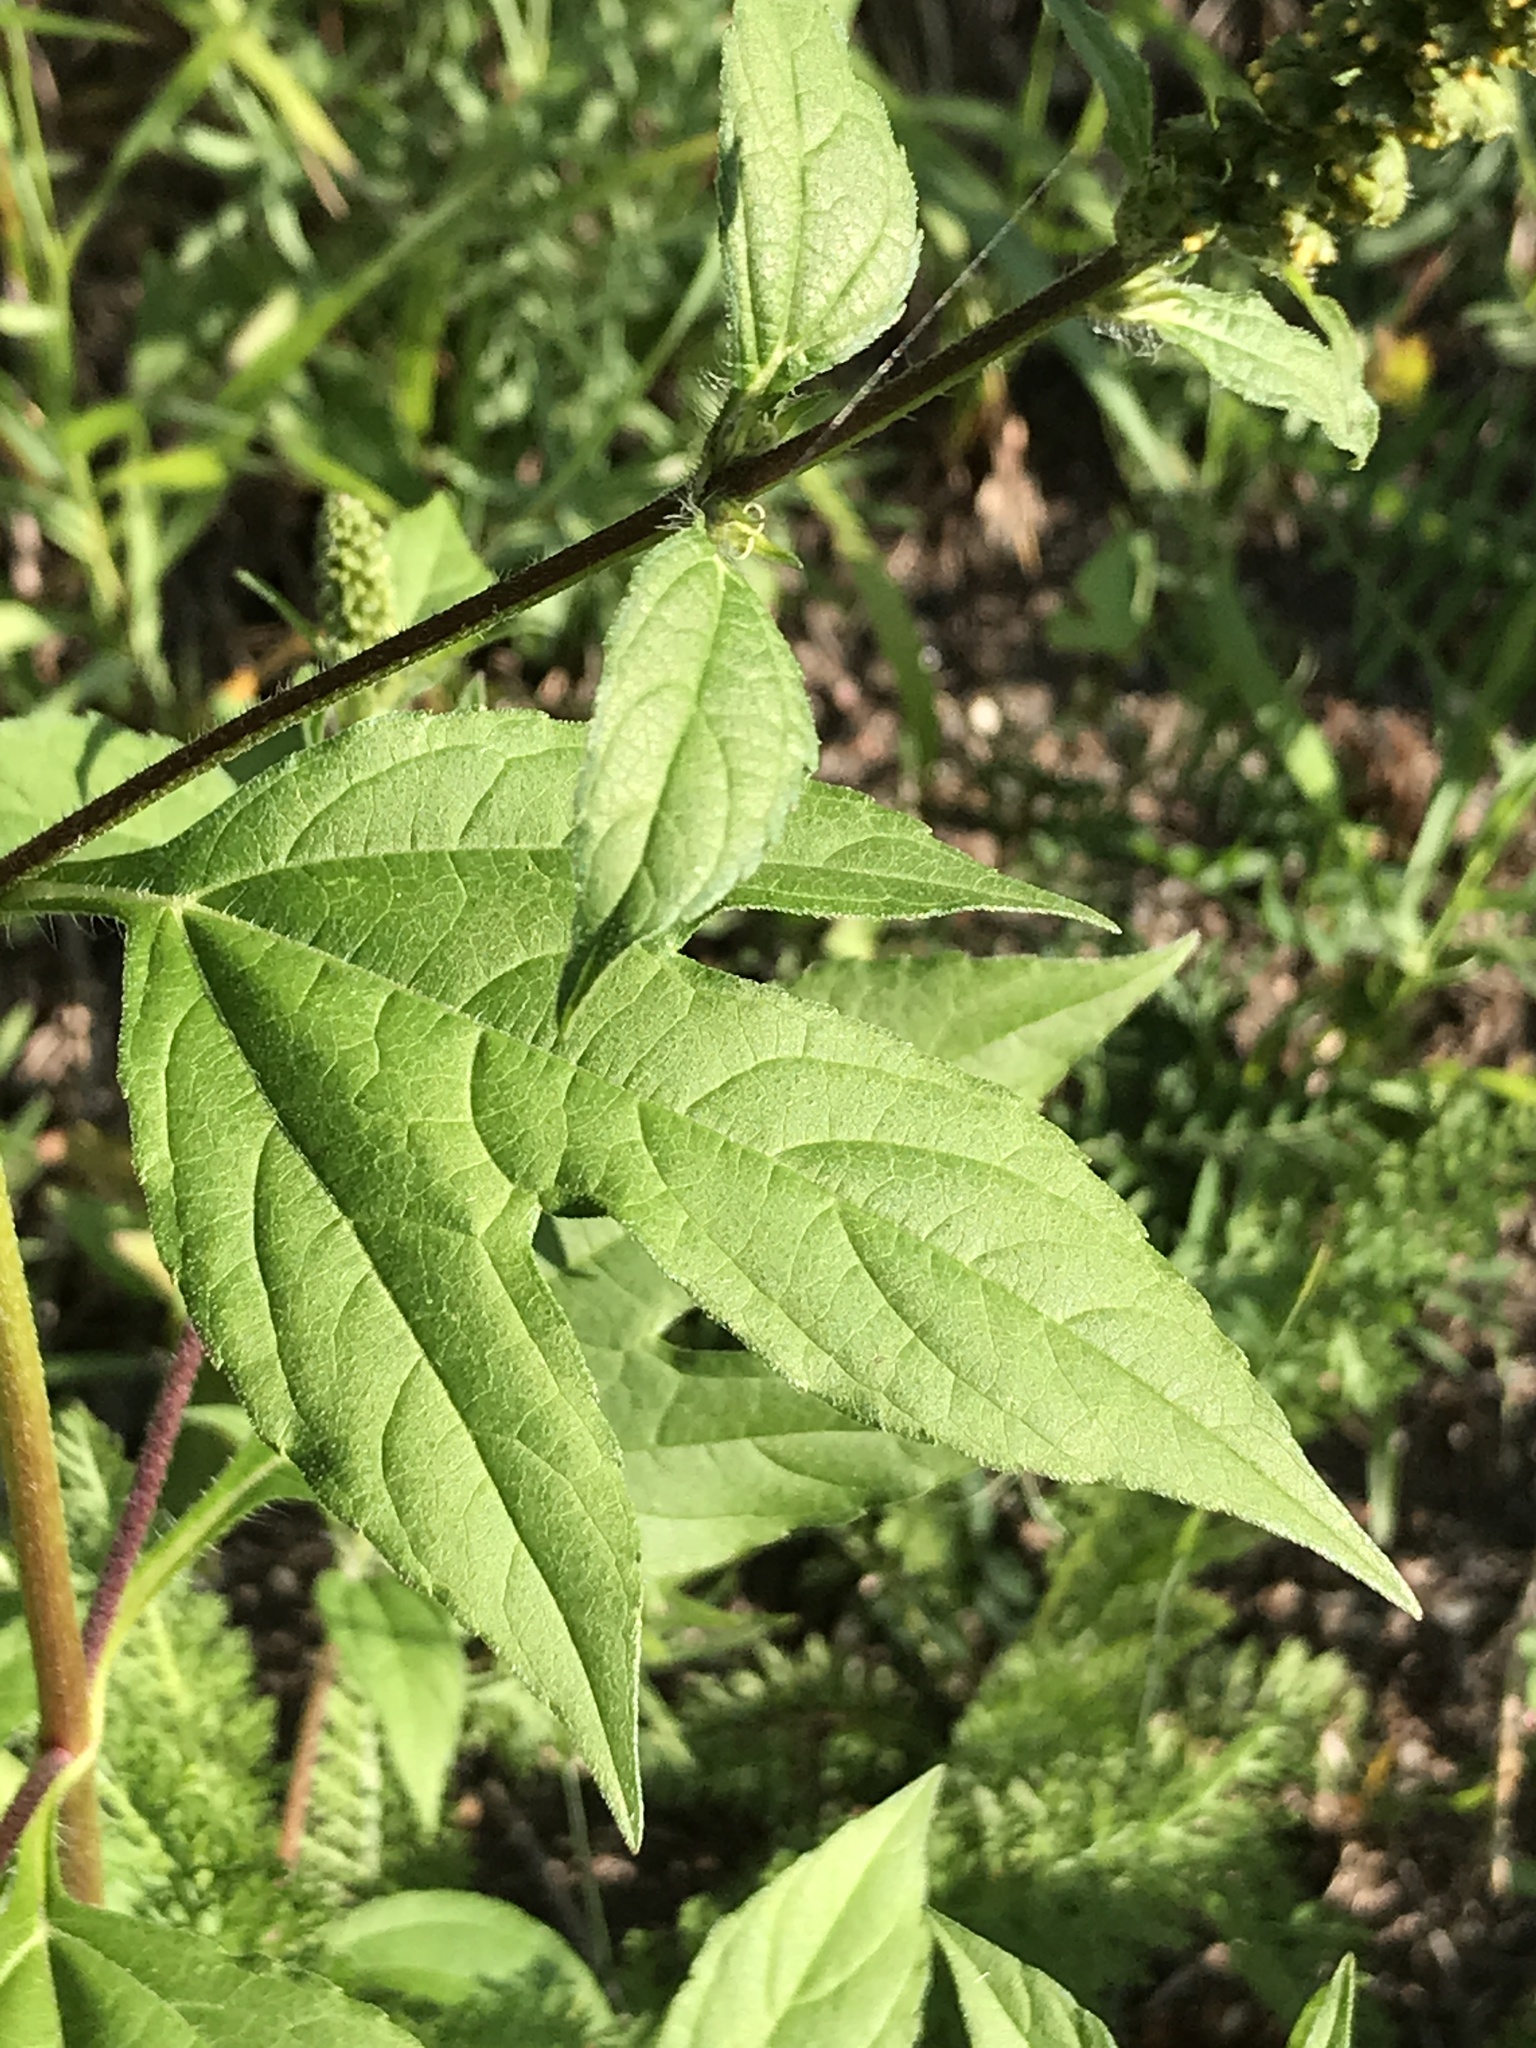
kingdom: Plantae
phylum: Tracheophyta
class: Magnoliopsida
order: Asterales
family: Asteraceae
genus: Ambrosia
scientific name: Ambrosia trifida
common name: Giant ragweed
